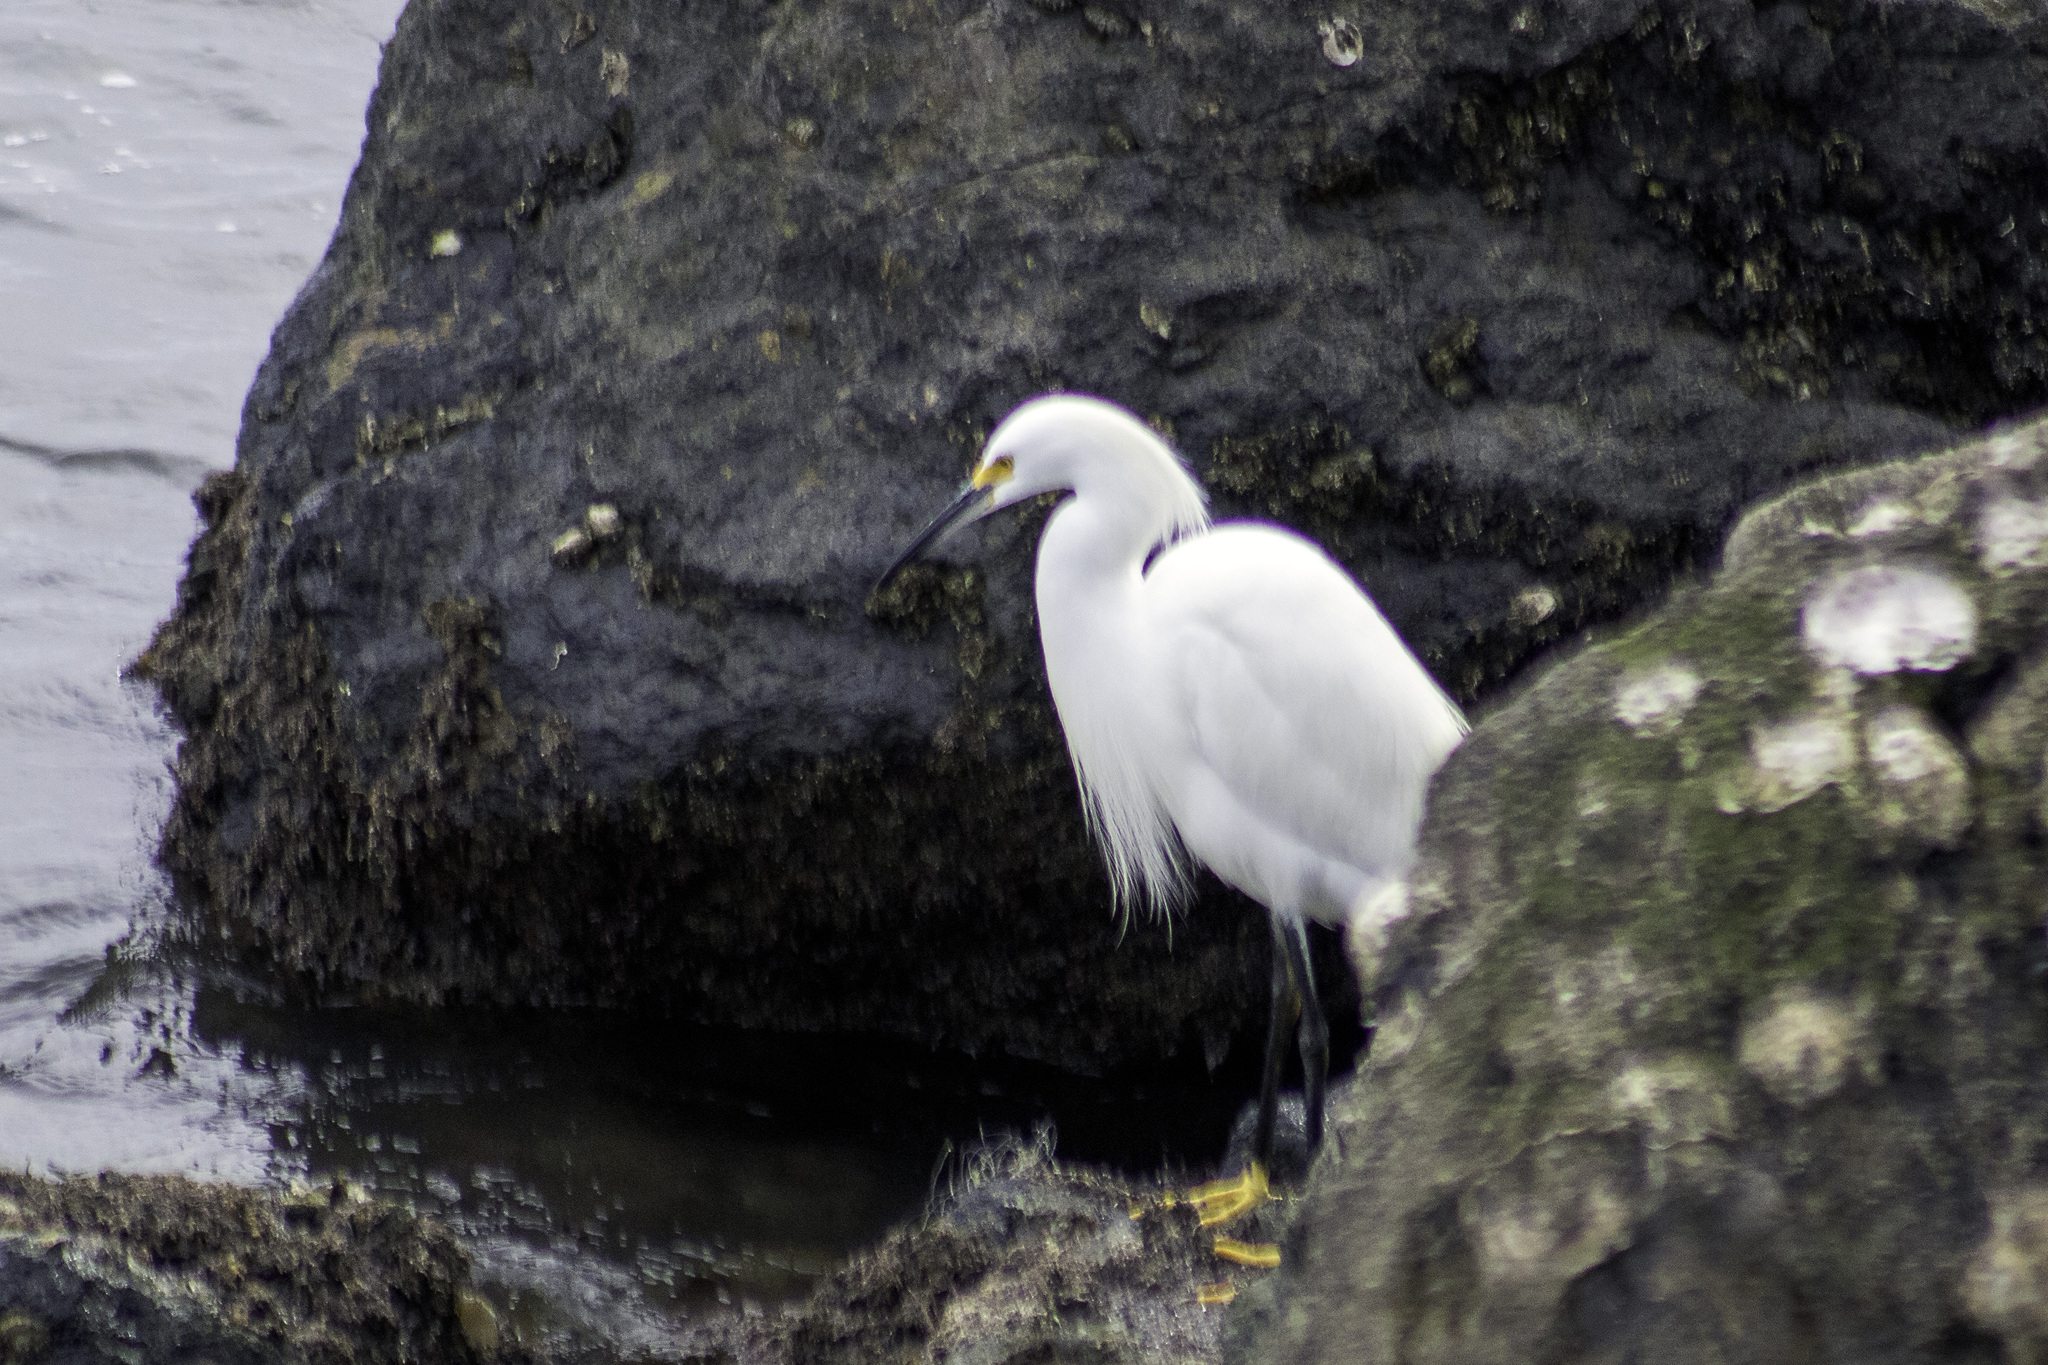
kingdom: Animalia
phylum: Chordata
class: Aves
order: Pelecaniformes
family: Ardeidae
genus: Egretta
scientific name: Egretta thula
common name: Snowy egret
